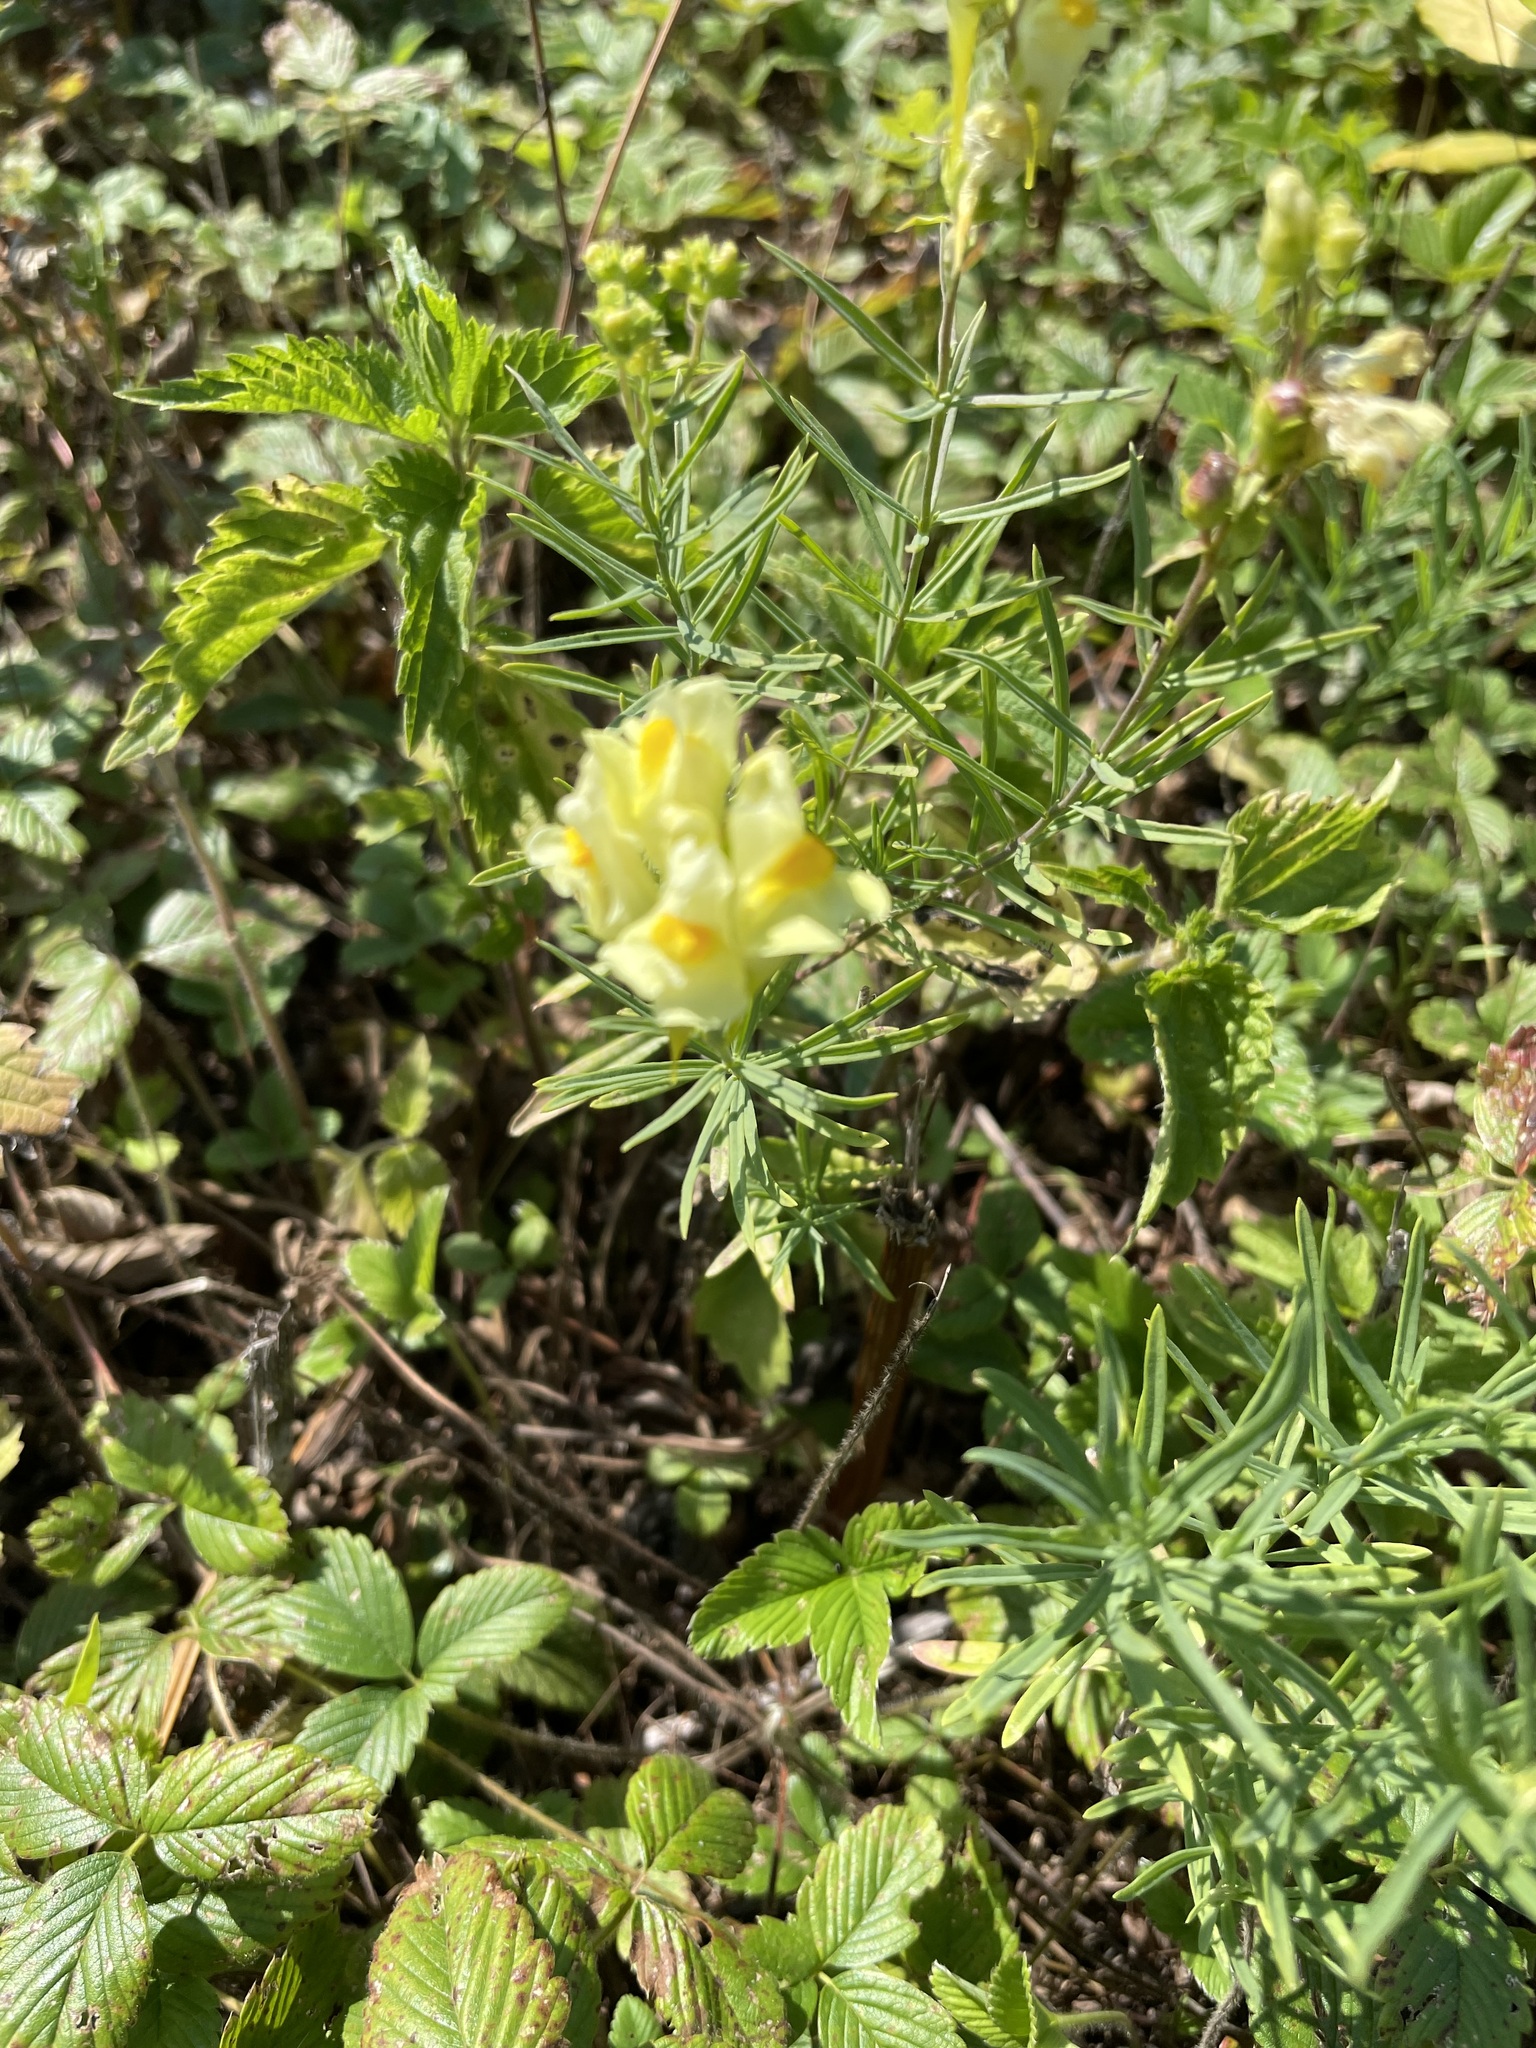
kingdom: Plantae
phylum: Tracheophyta
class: Magnoliopsida
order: Lamiales
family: Plantaginaceae
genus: Linaria
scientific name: Linaria vulgaris
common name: Butter and eggs
